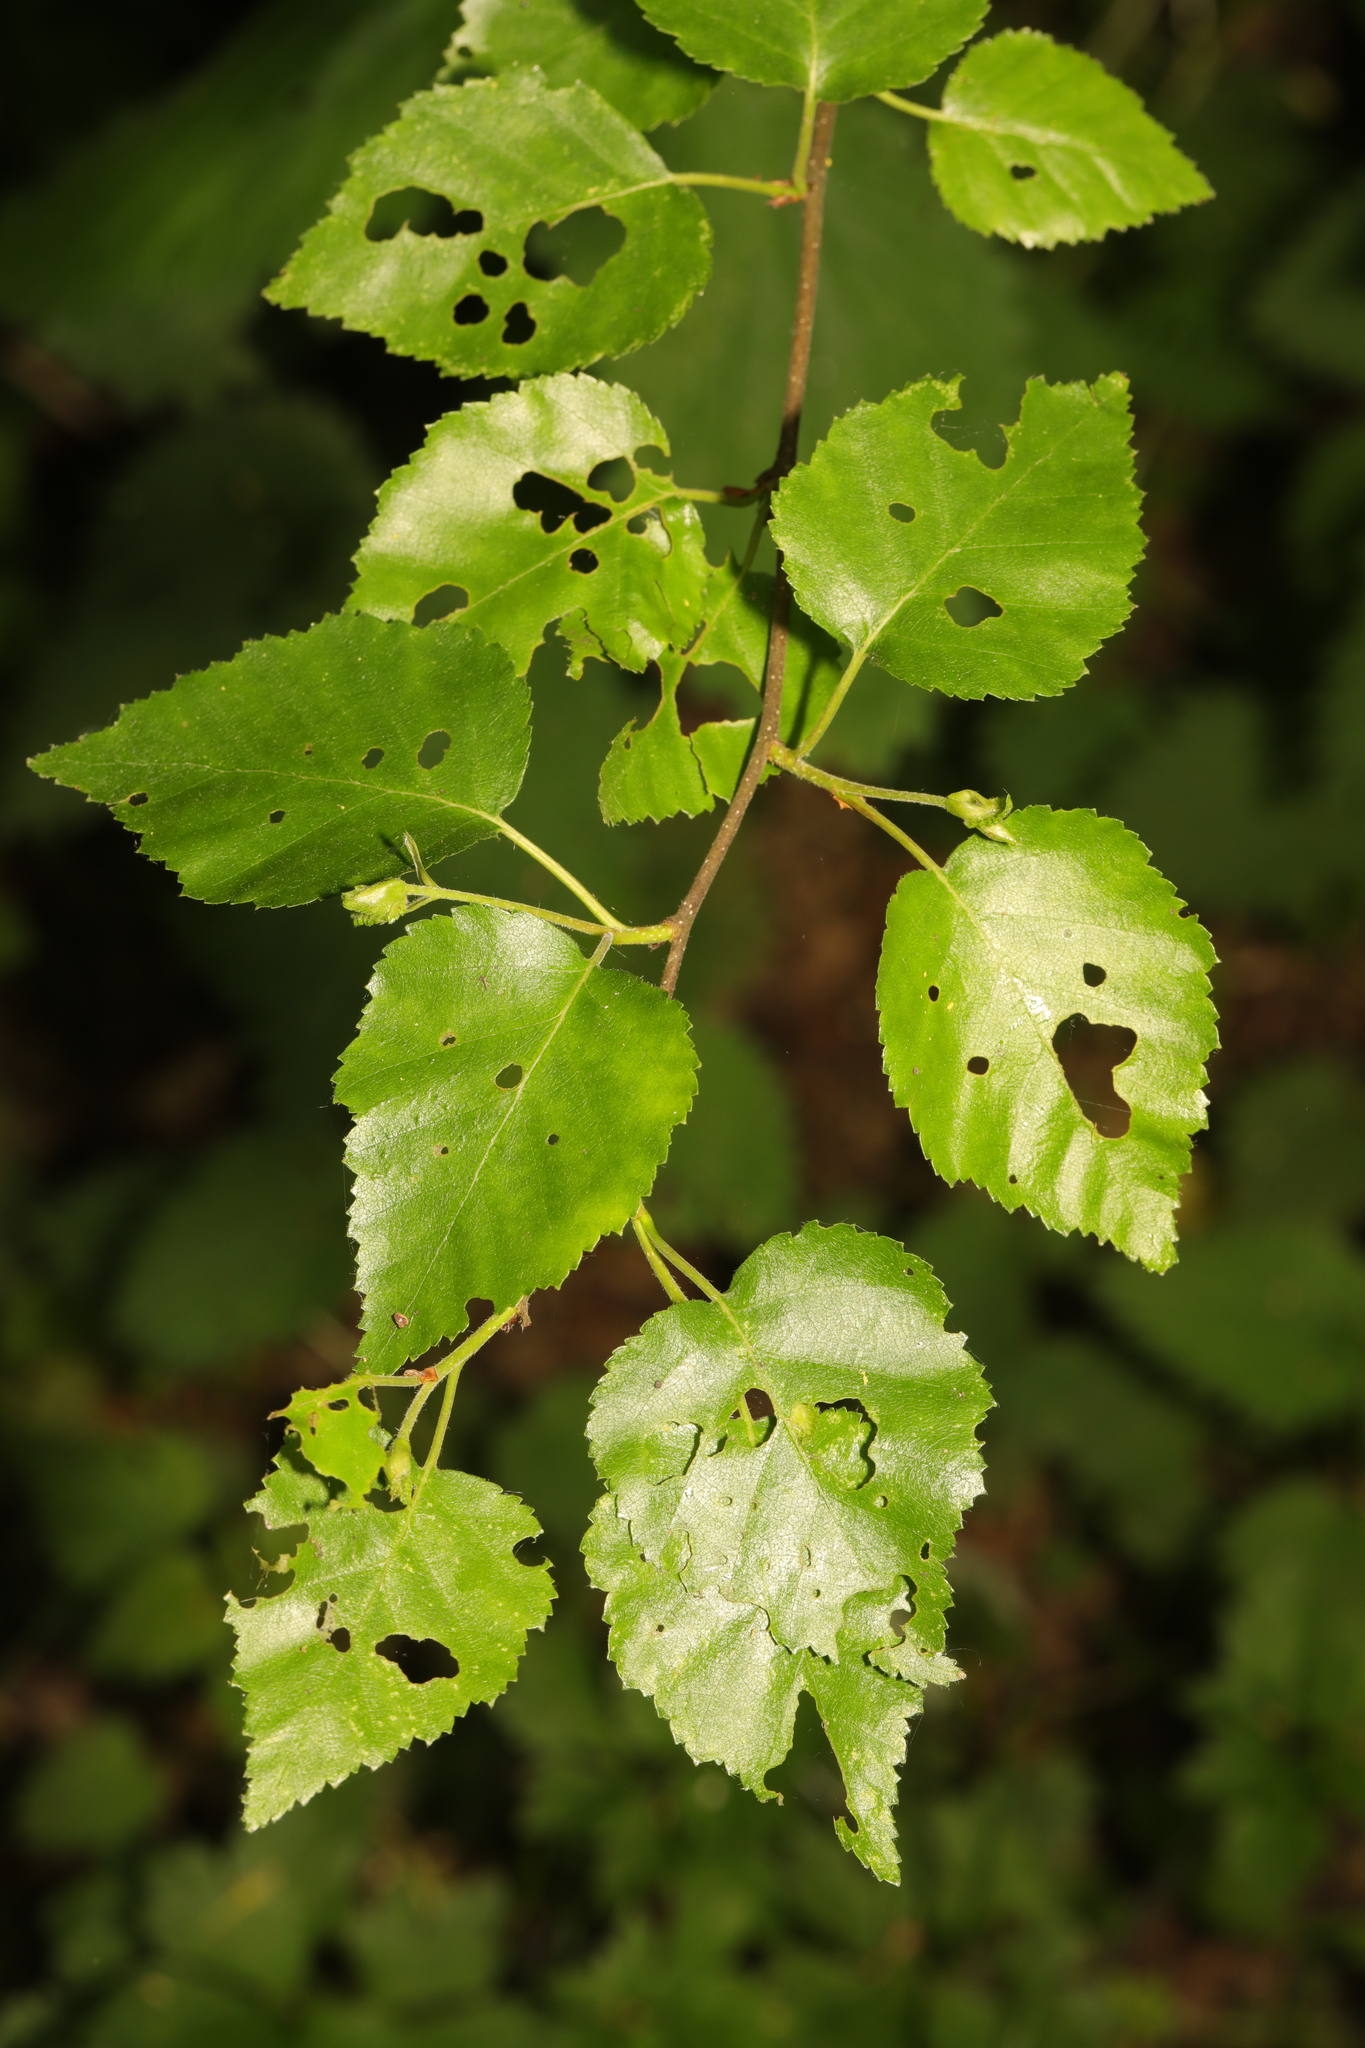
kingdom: Plantae
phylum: Tracheophyta
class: Magnoliopsida
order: Fagales
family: Betulaceae
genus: Betula
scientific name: Betula pubescens
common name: Downy birch
